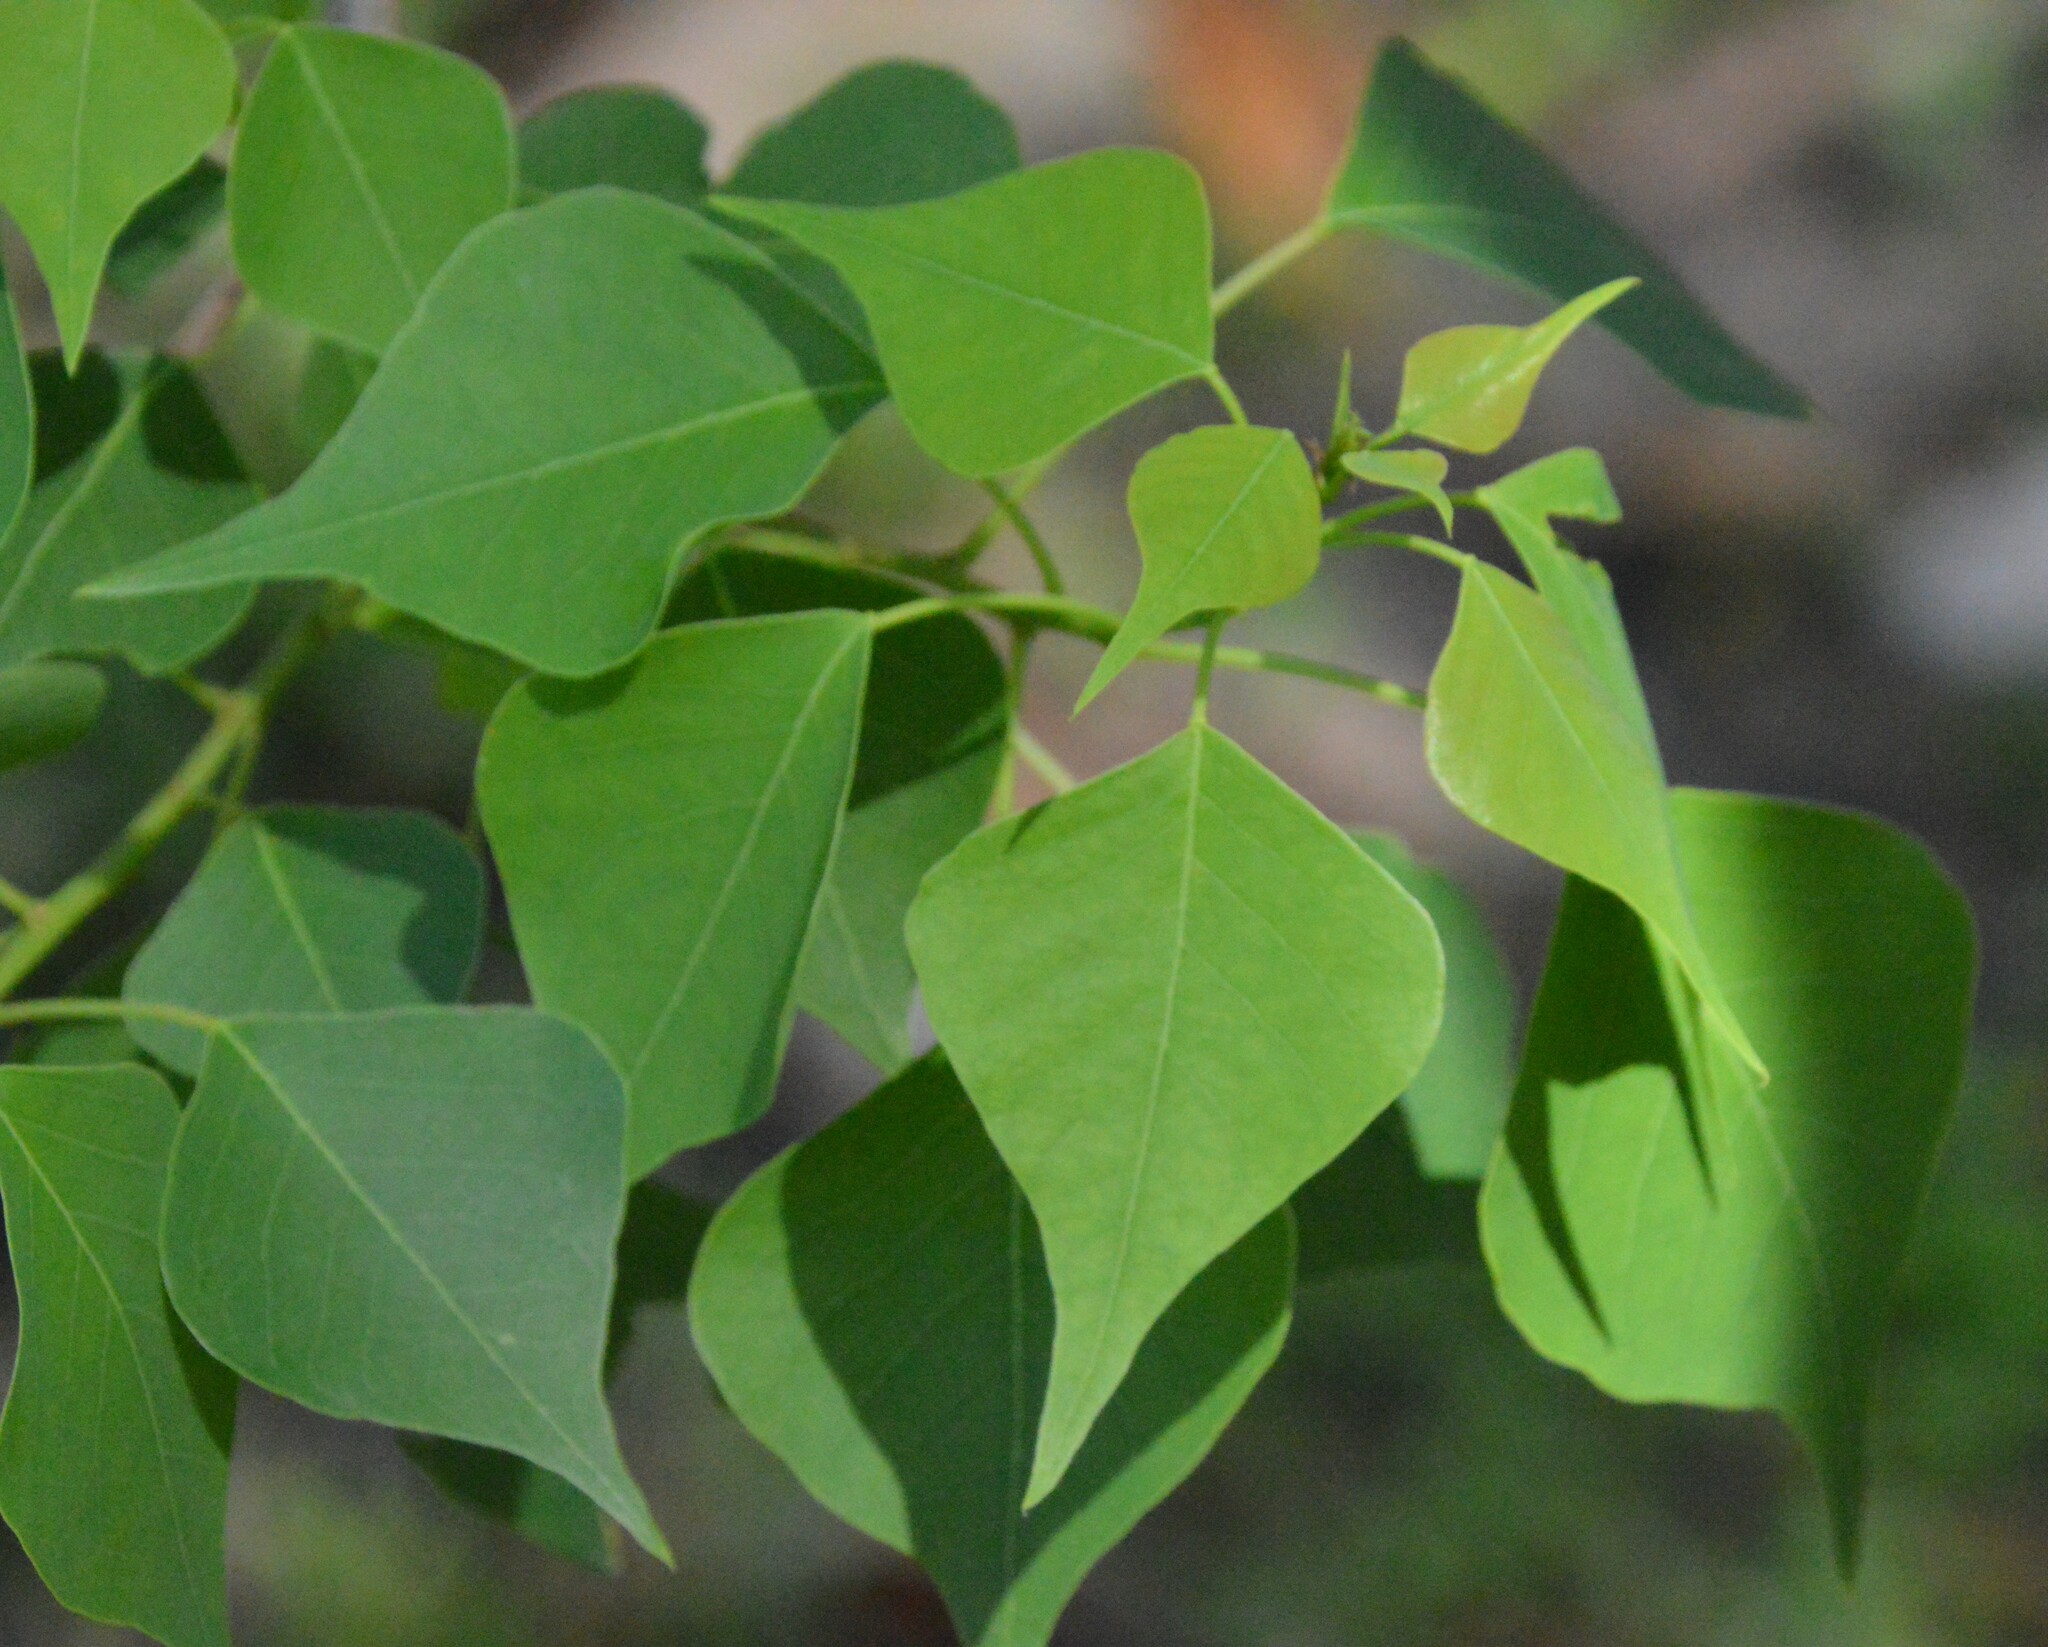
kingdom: Plantae
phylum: Tracheophyta
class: Magnoliopsida
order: Malpighiales
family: Euphorbiaceae
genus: Triadica
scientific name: Triadica sebifera
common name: Chinese tallow
